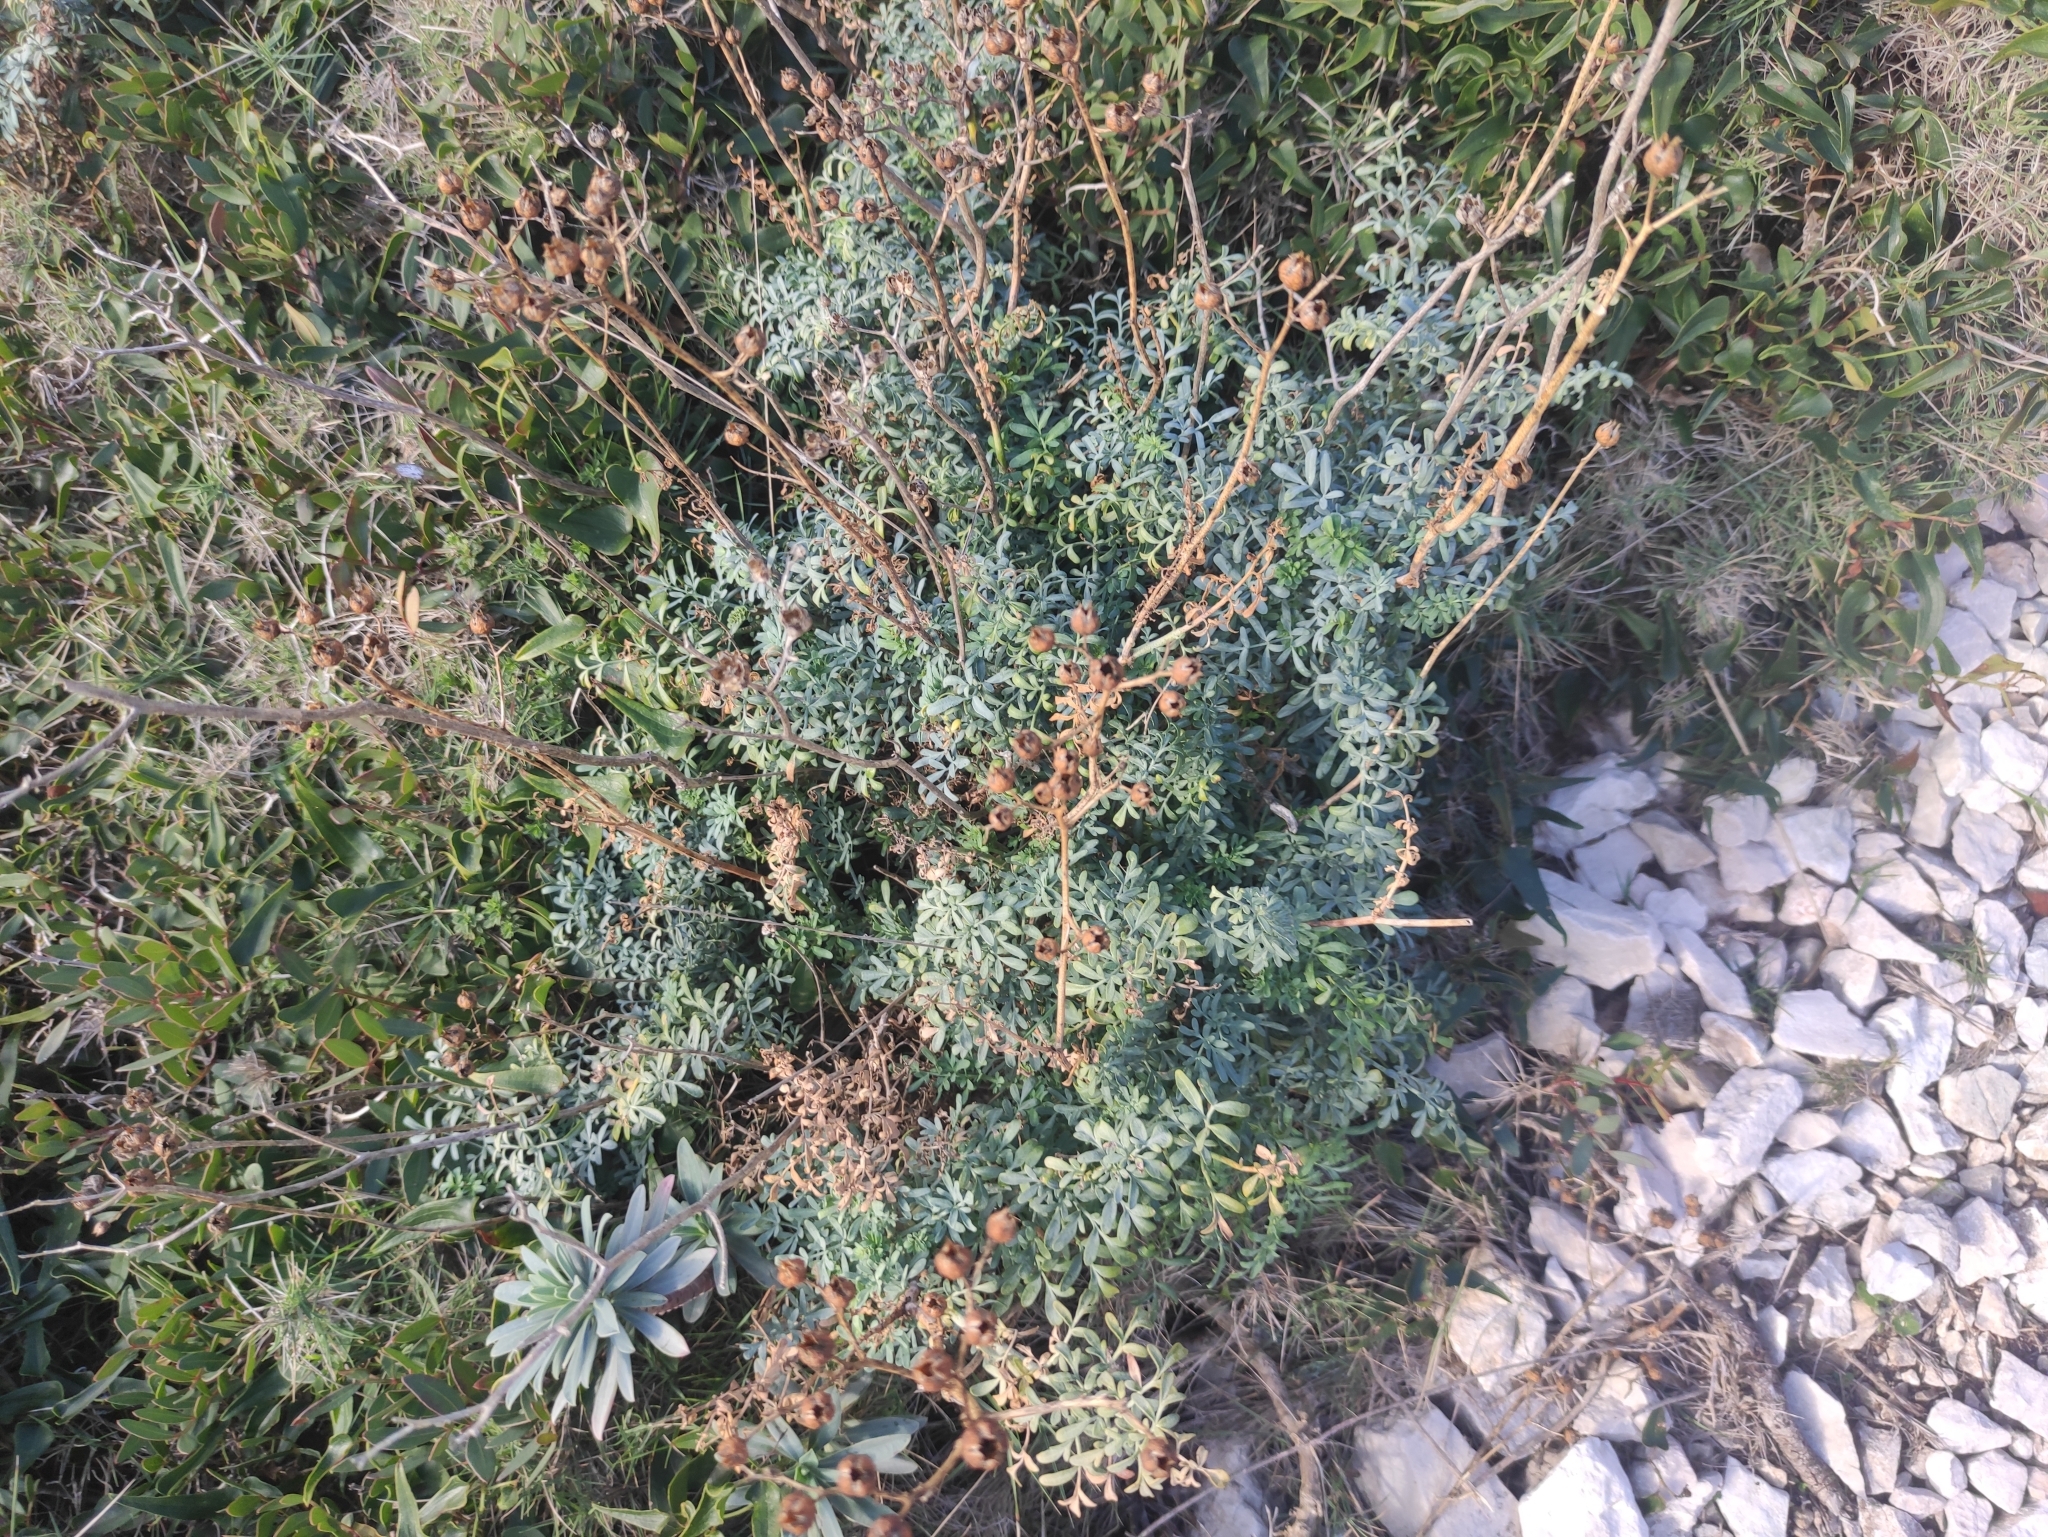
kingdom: Plantae
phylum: Tracheophyta
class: Magnoliopsida
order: Sapindales
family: Rutaceae
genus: Ruta
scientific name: Ruta angustifolia
